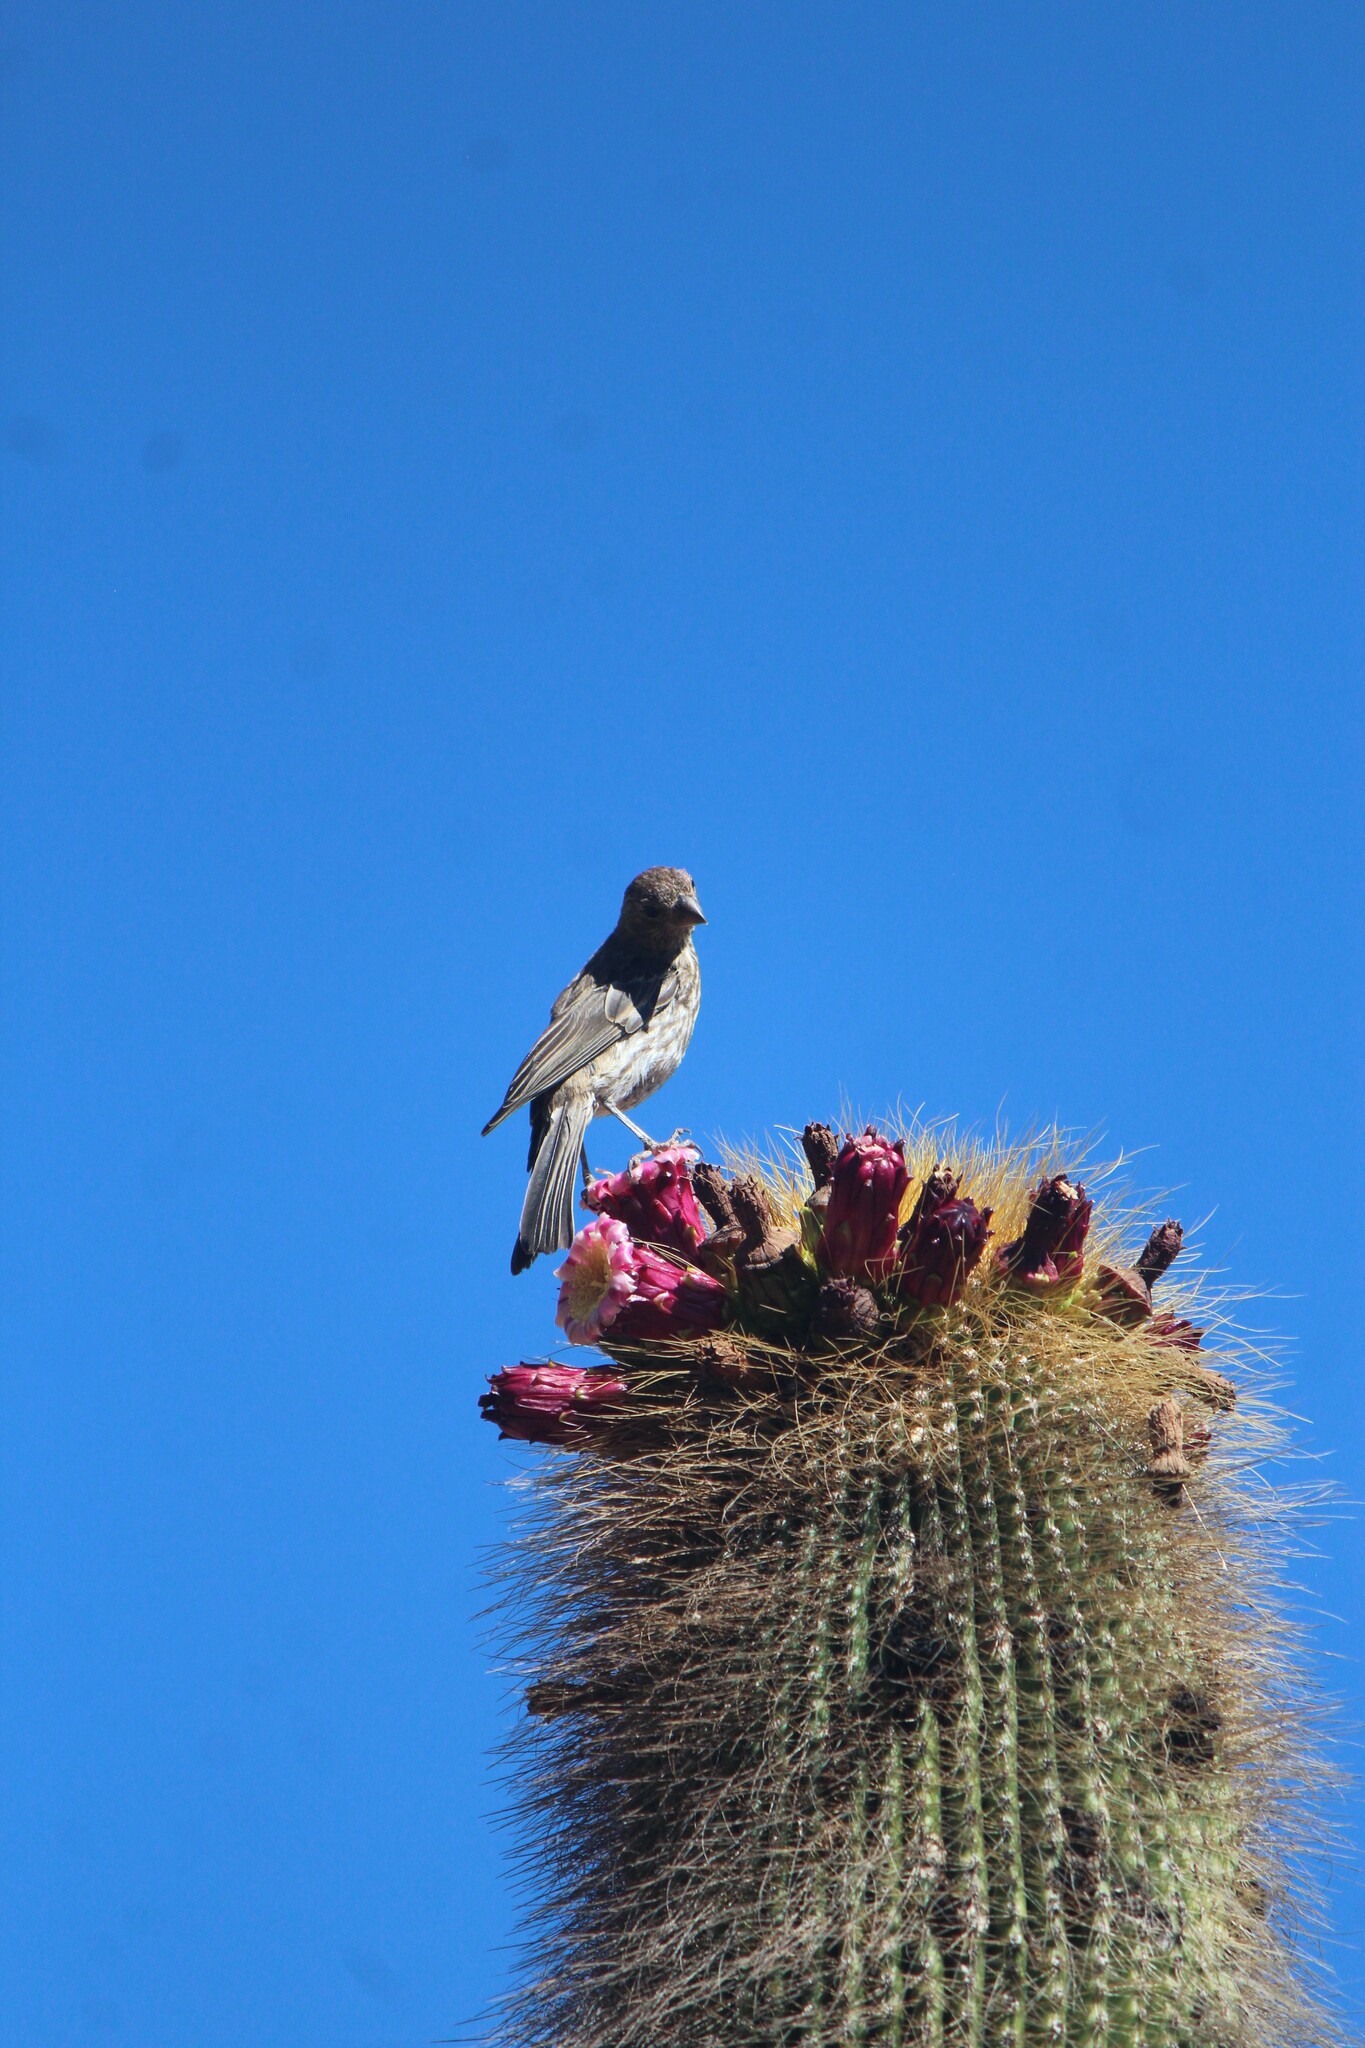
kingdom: Animalia
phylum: Chordata
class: Aves
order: Passeriformes
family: Fringillidae
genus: Haemorhous
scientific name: Haemorhous mexicanus
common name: House finch
